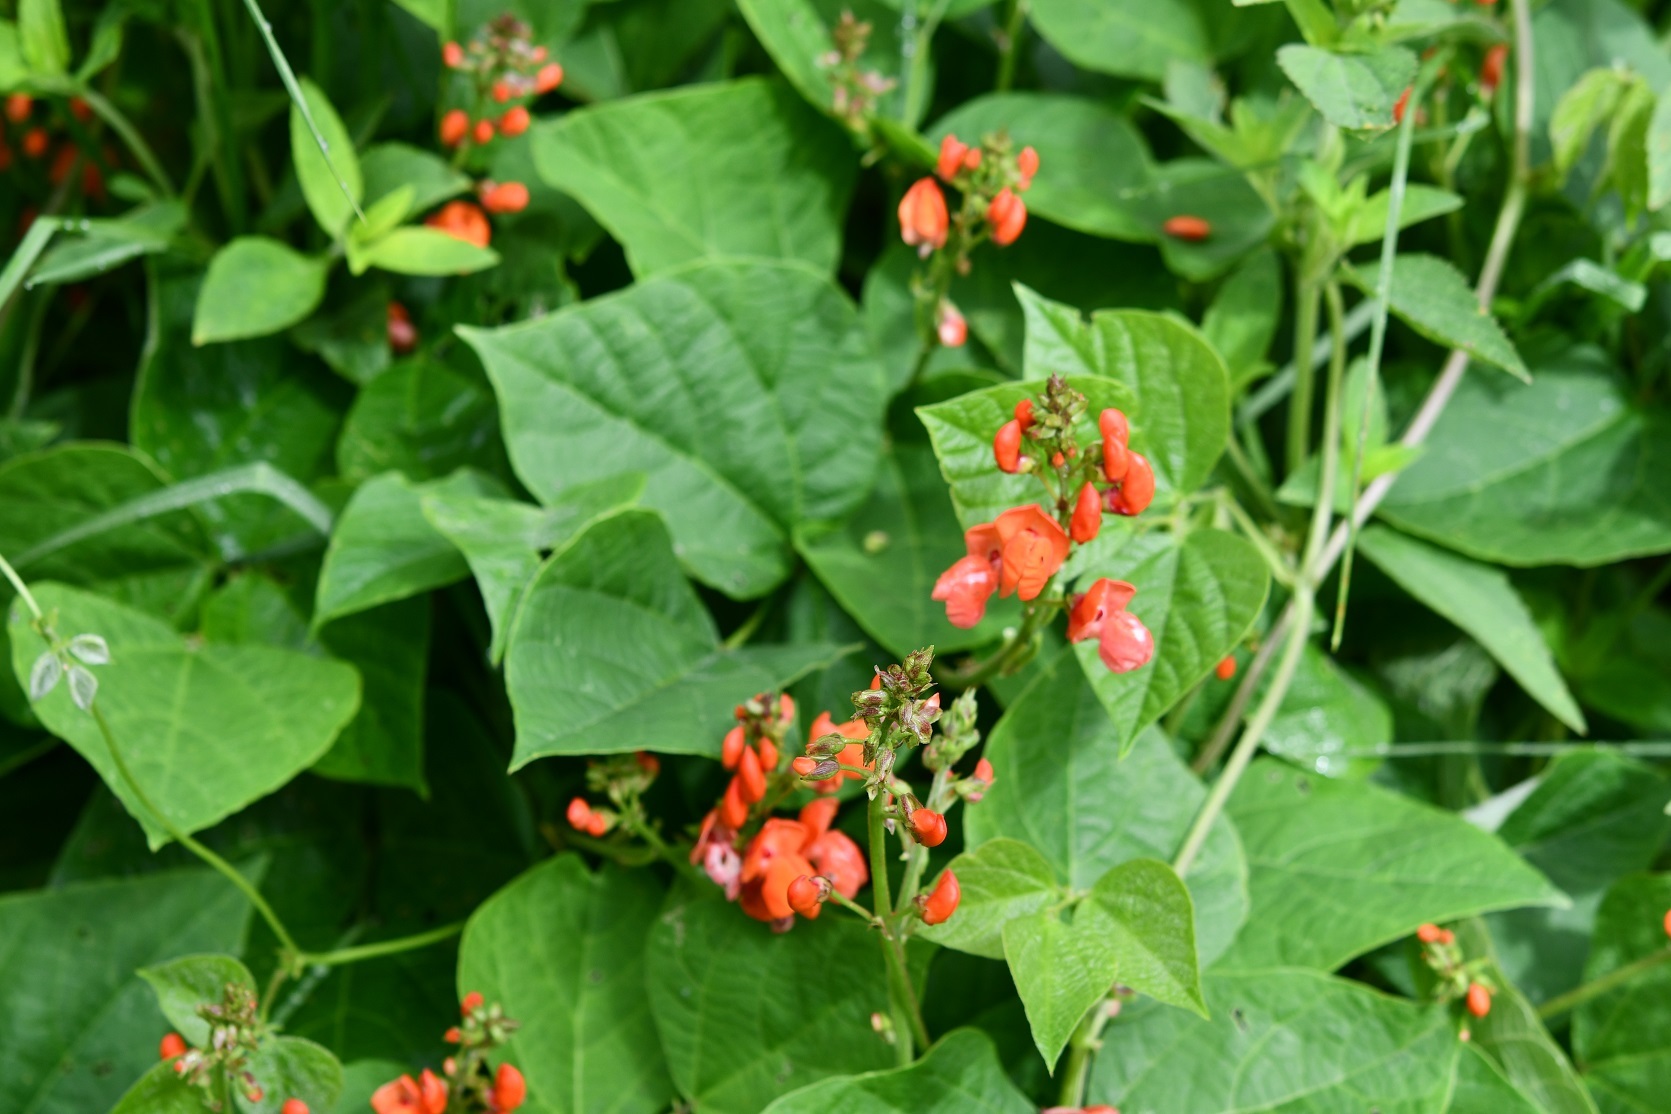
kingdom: Plantae
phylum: Tracheophyta
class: Magnoliopsida
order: Fabales
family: Fabaceae
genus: Phaseolus
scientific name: Phaseolus coccineus
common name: Runner bean
